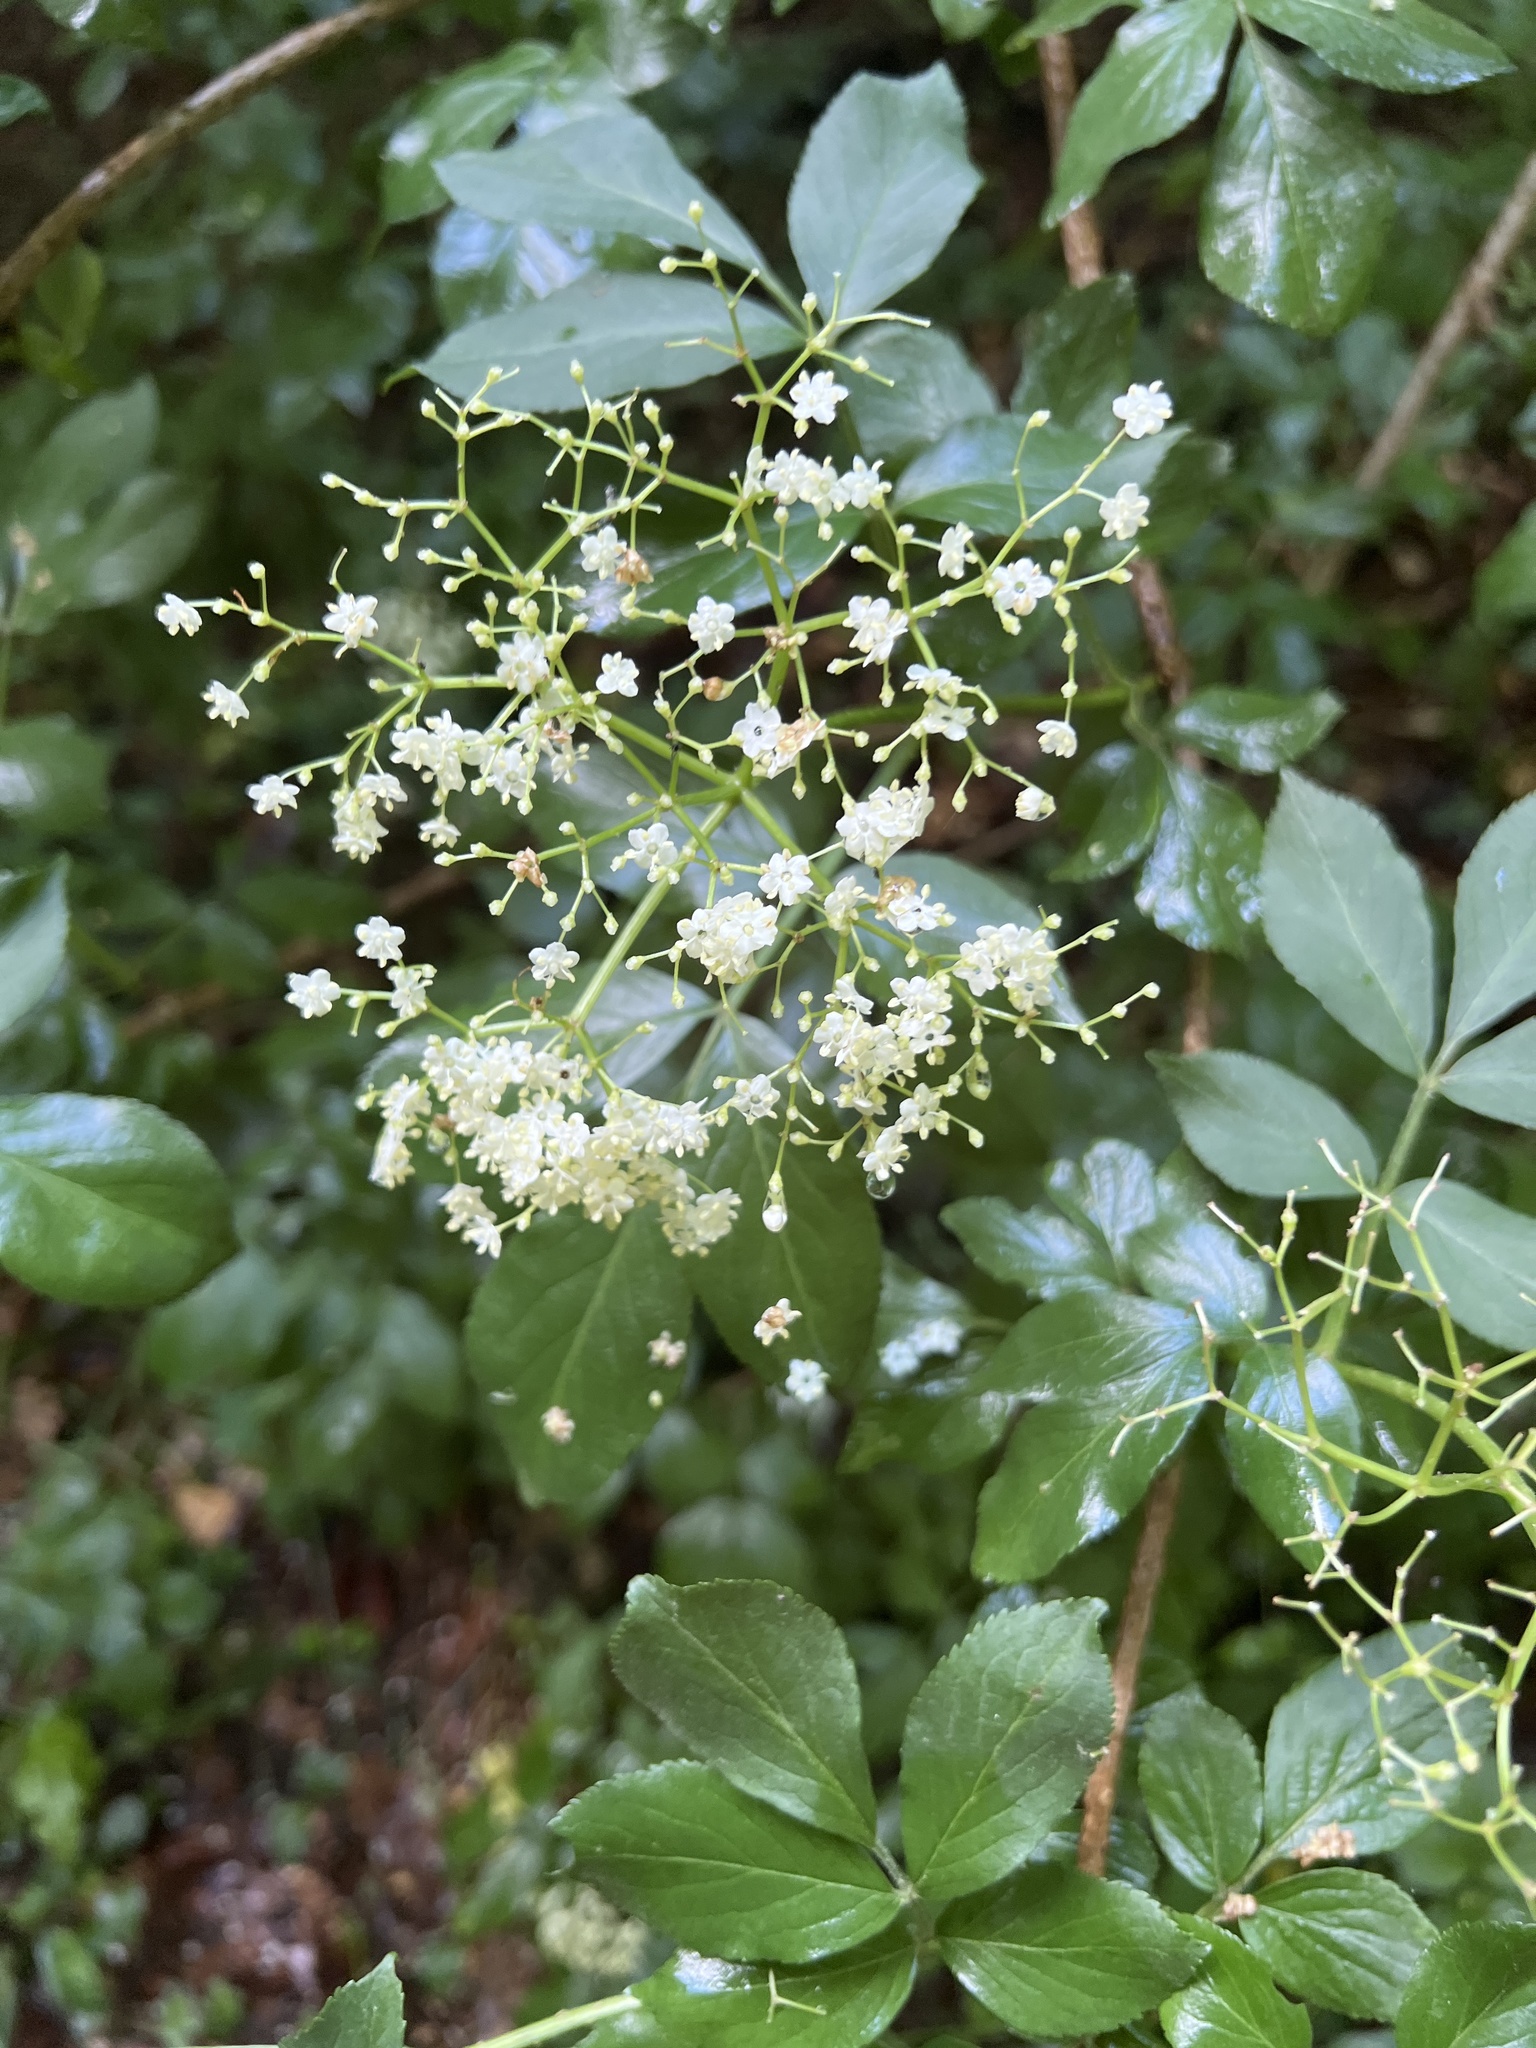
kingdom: Plantae
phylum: Tracheophyta
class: Magnoliopsida
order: Dipsacales
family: Viburnaceae
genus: Sambucus
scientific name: Sambucus nigra
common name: Elder
